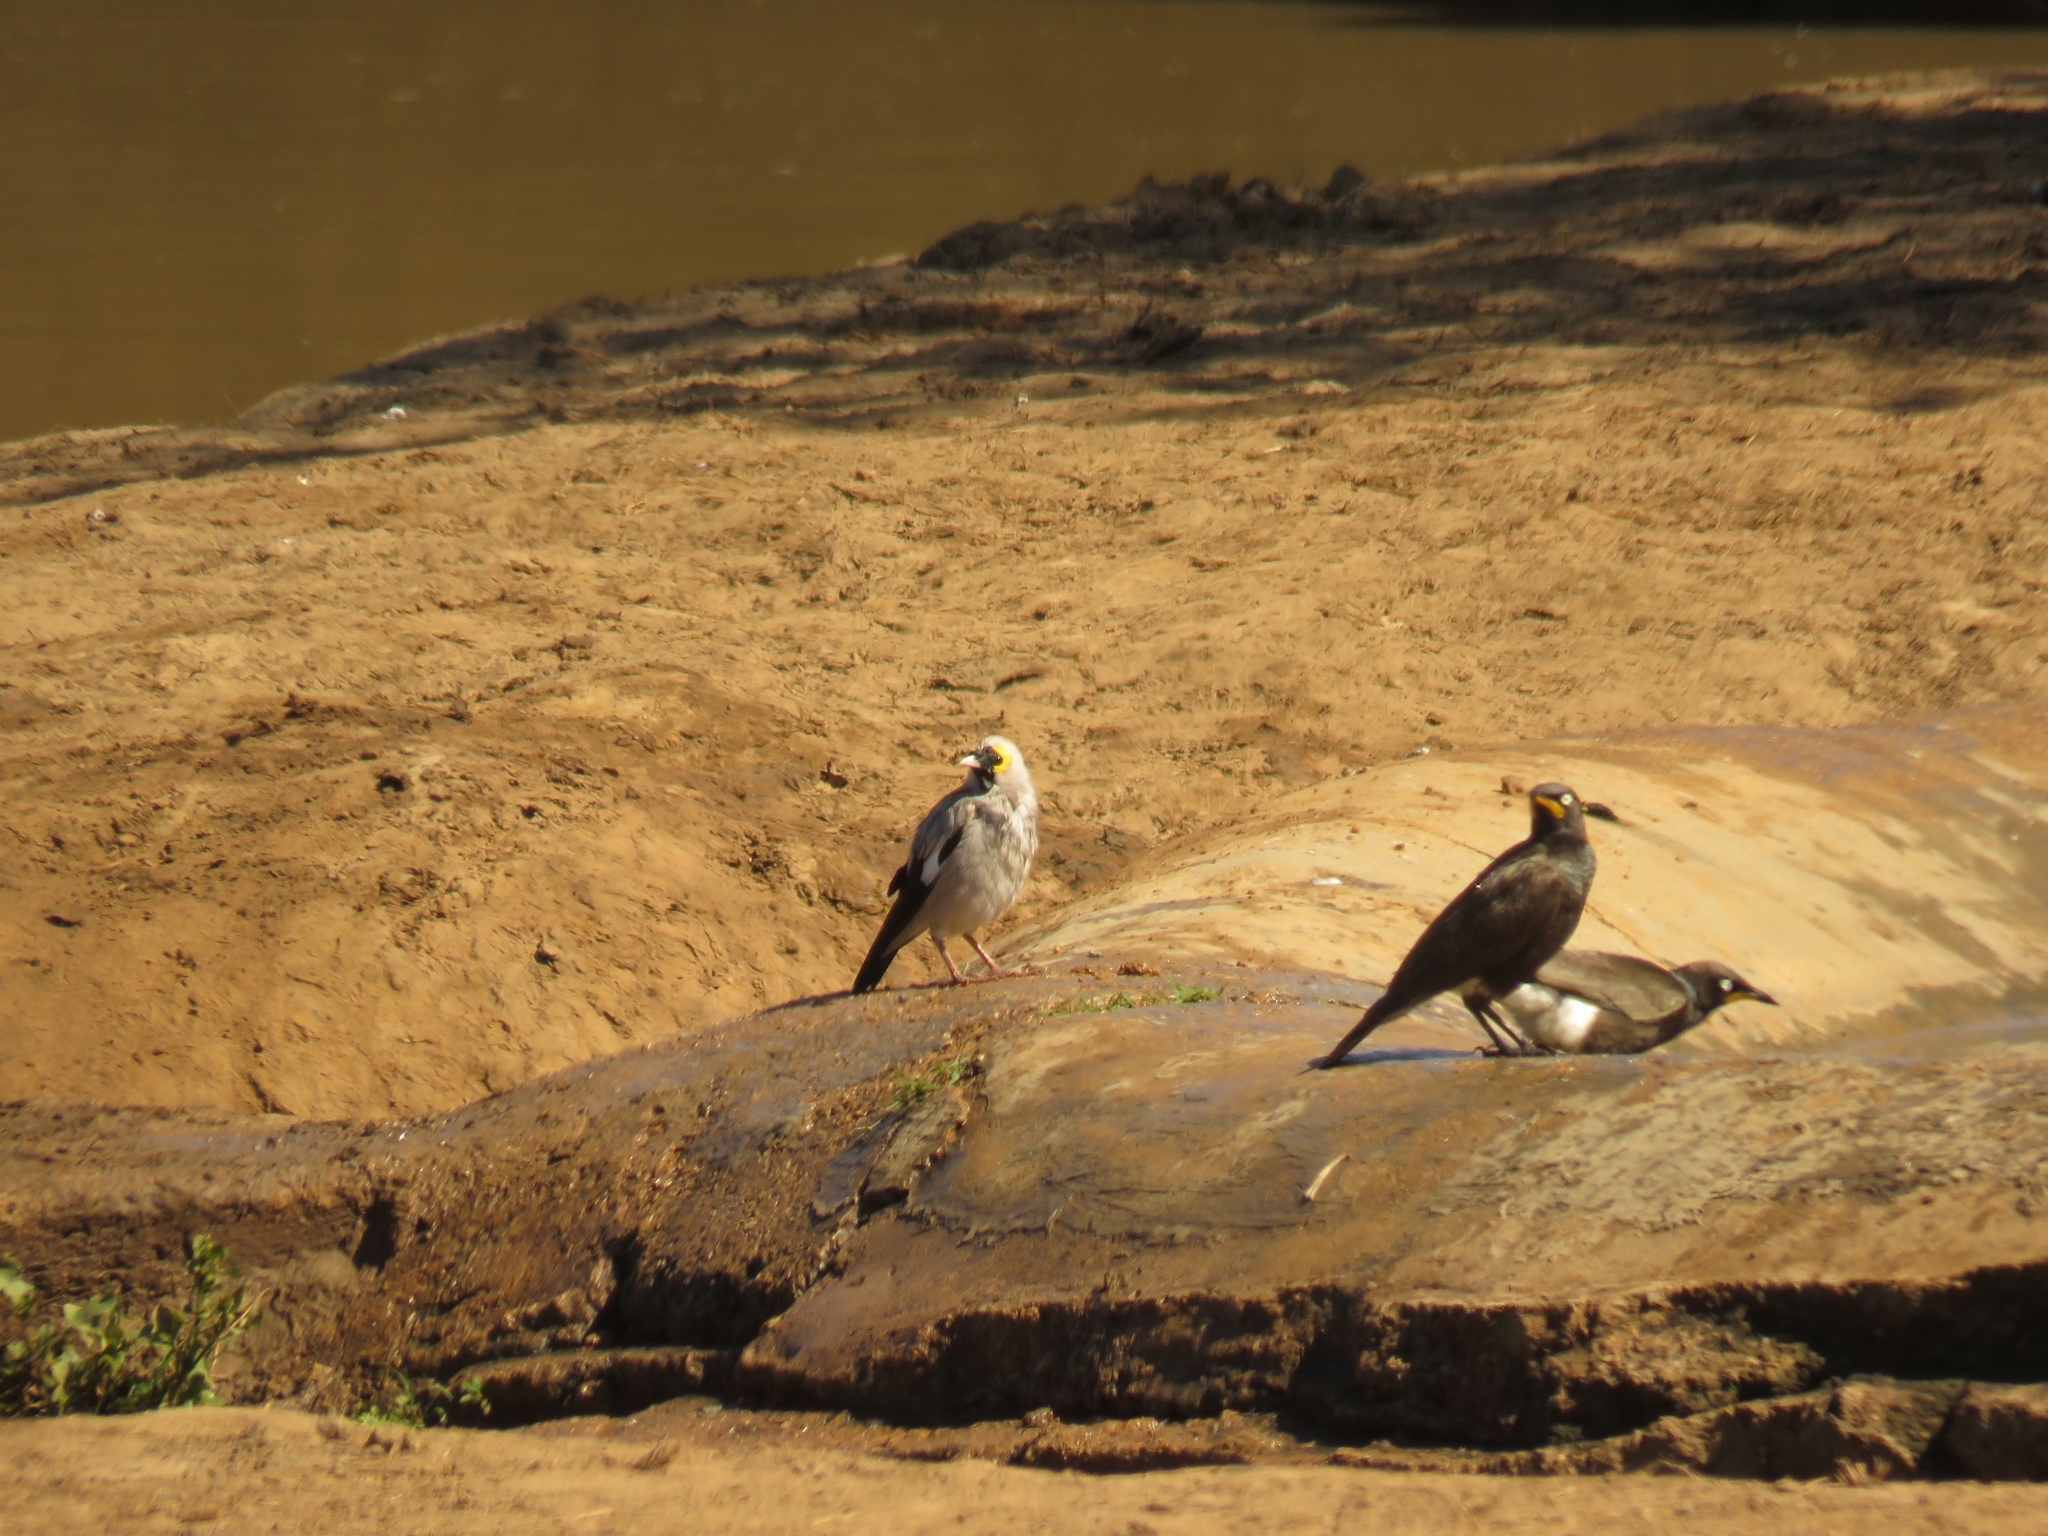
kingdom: Animalia
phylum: Chordata
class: Aves
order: Passeriformes
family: Sturnidae
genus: Creatophora
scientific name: Creatophora cinerea
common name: Wattled starling
